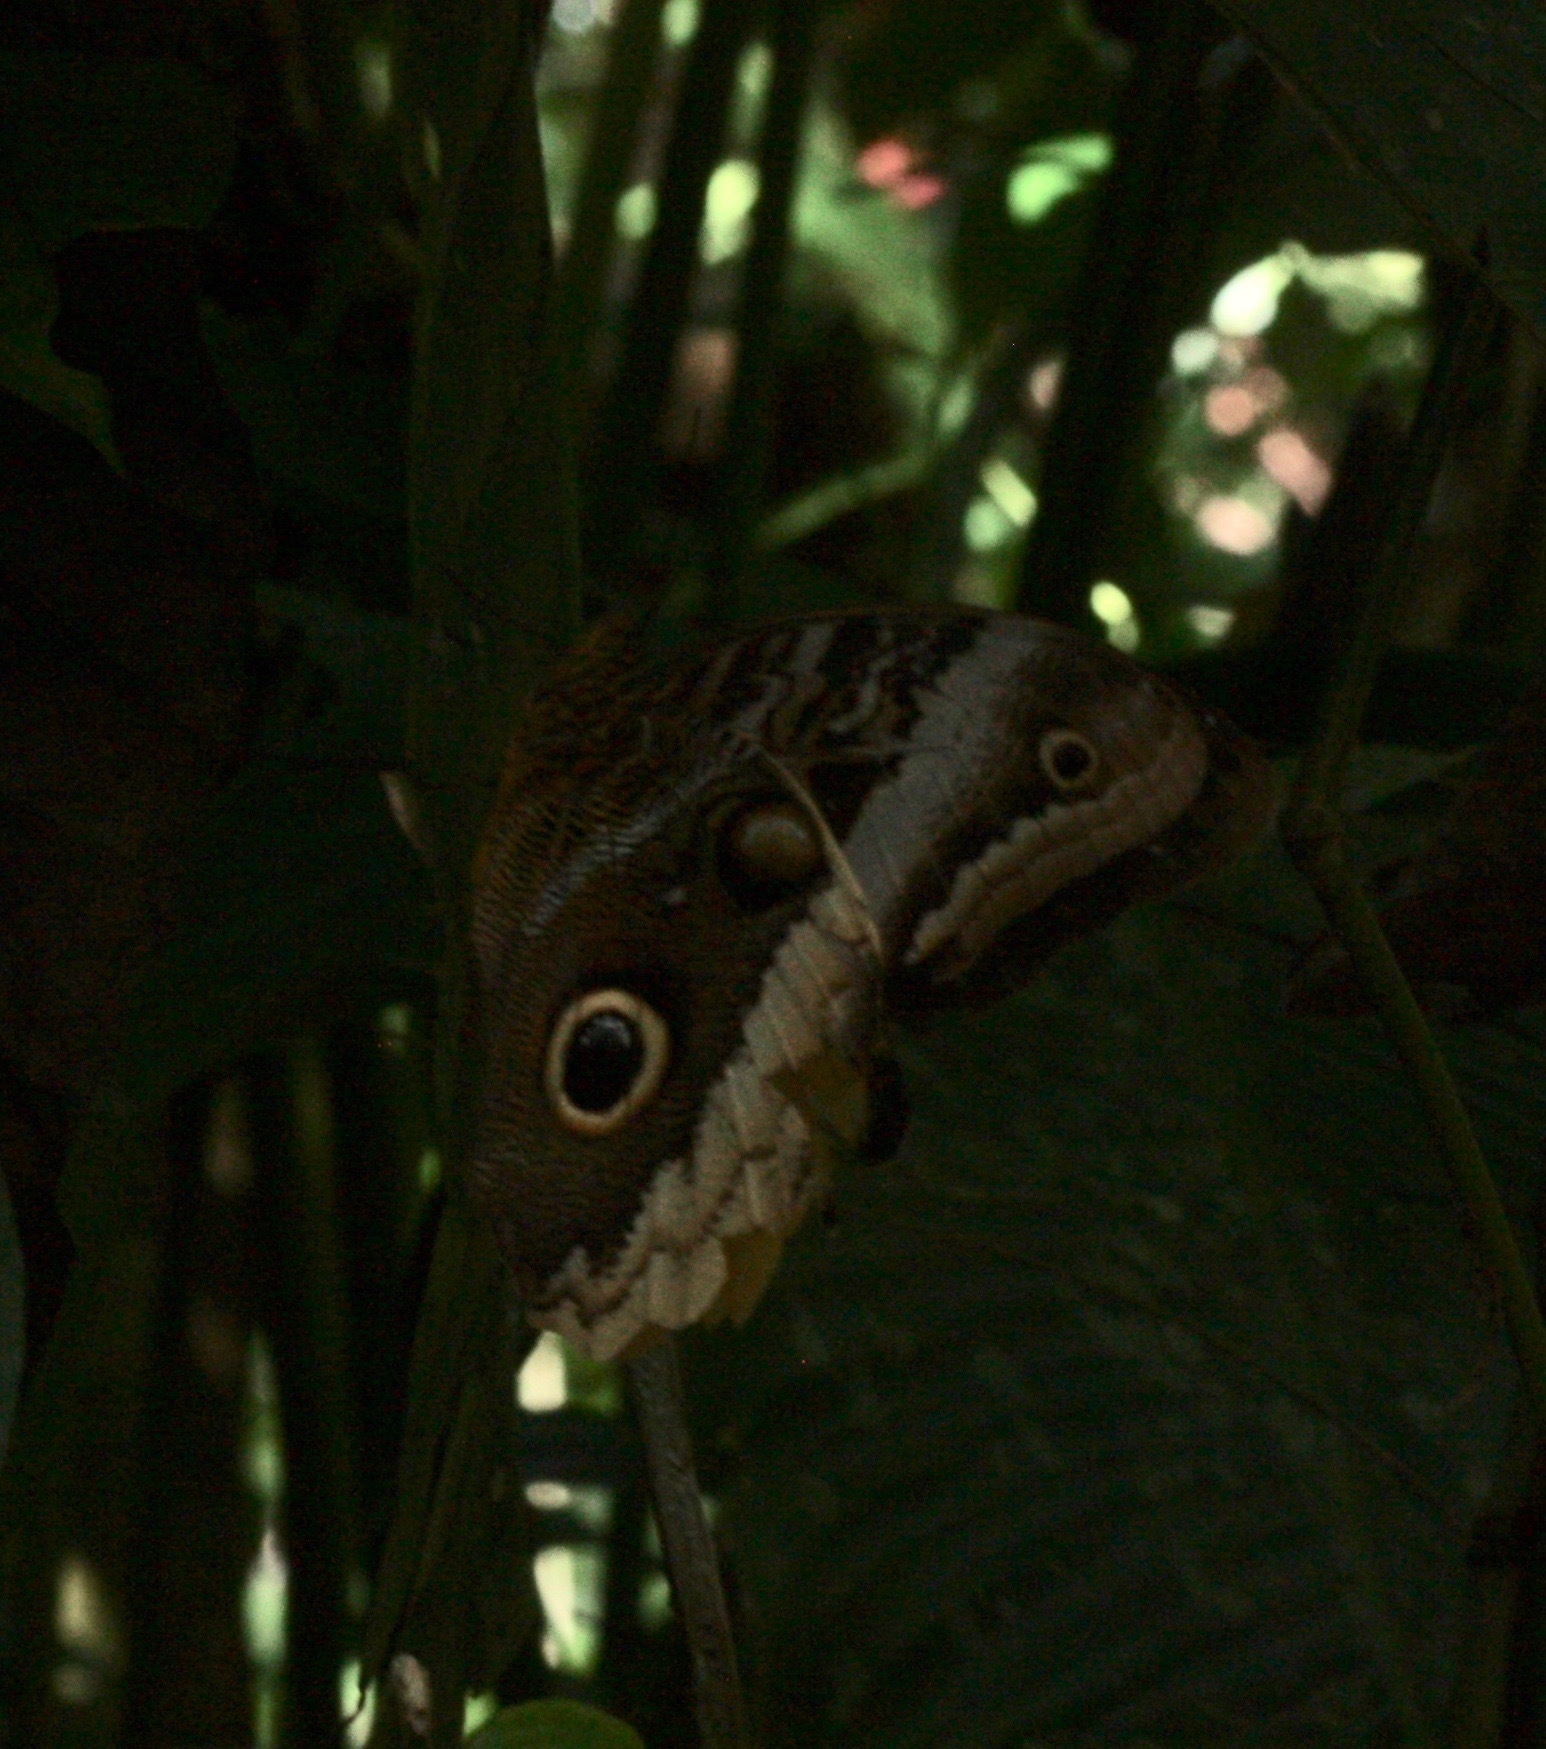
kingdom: Animalia
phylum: Arthropoda
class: Insecta
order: Lepidoptera
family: Nymphalidae
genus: Caligo
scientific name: Caligo atreus
